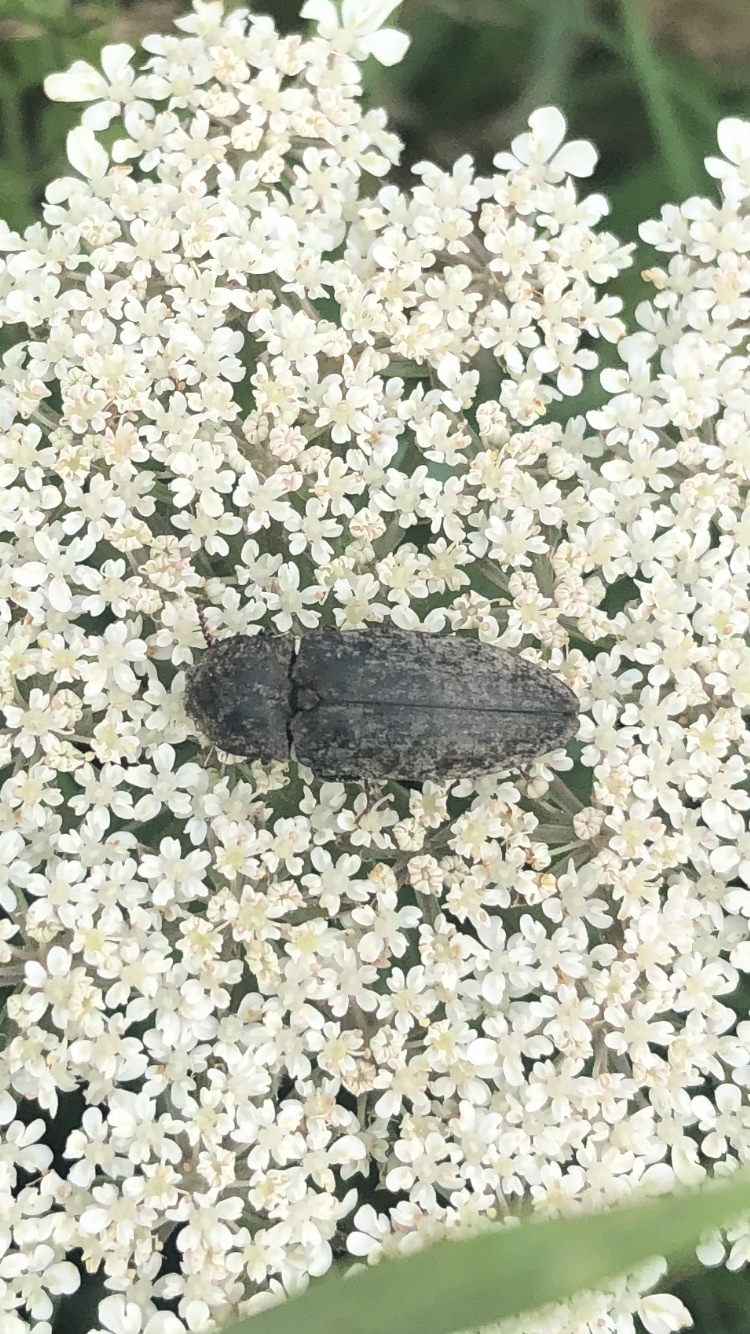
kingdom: Animalia
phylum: Arthropoda
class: Insecta
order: Coleoptera
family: Elateridae
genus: Agrypnus
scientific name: Agrypnus murinus
